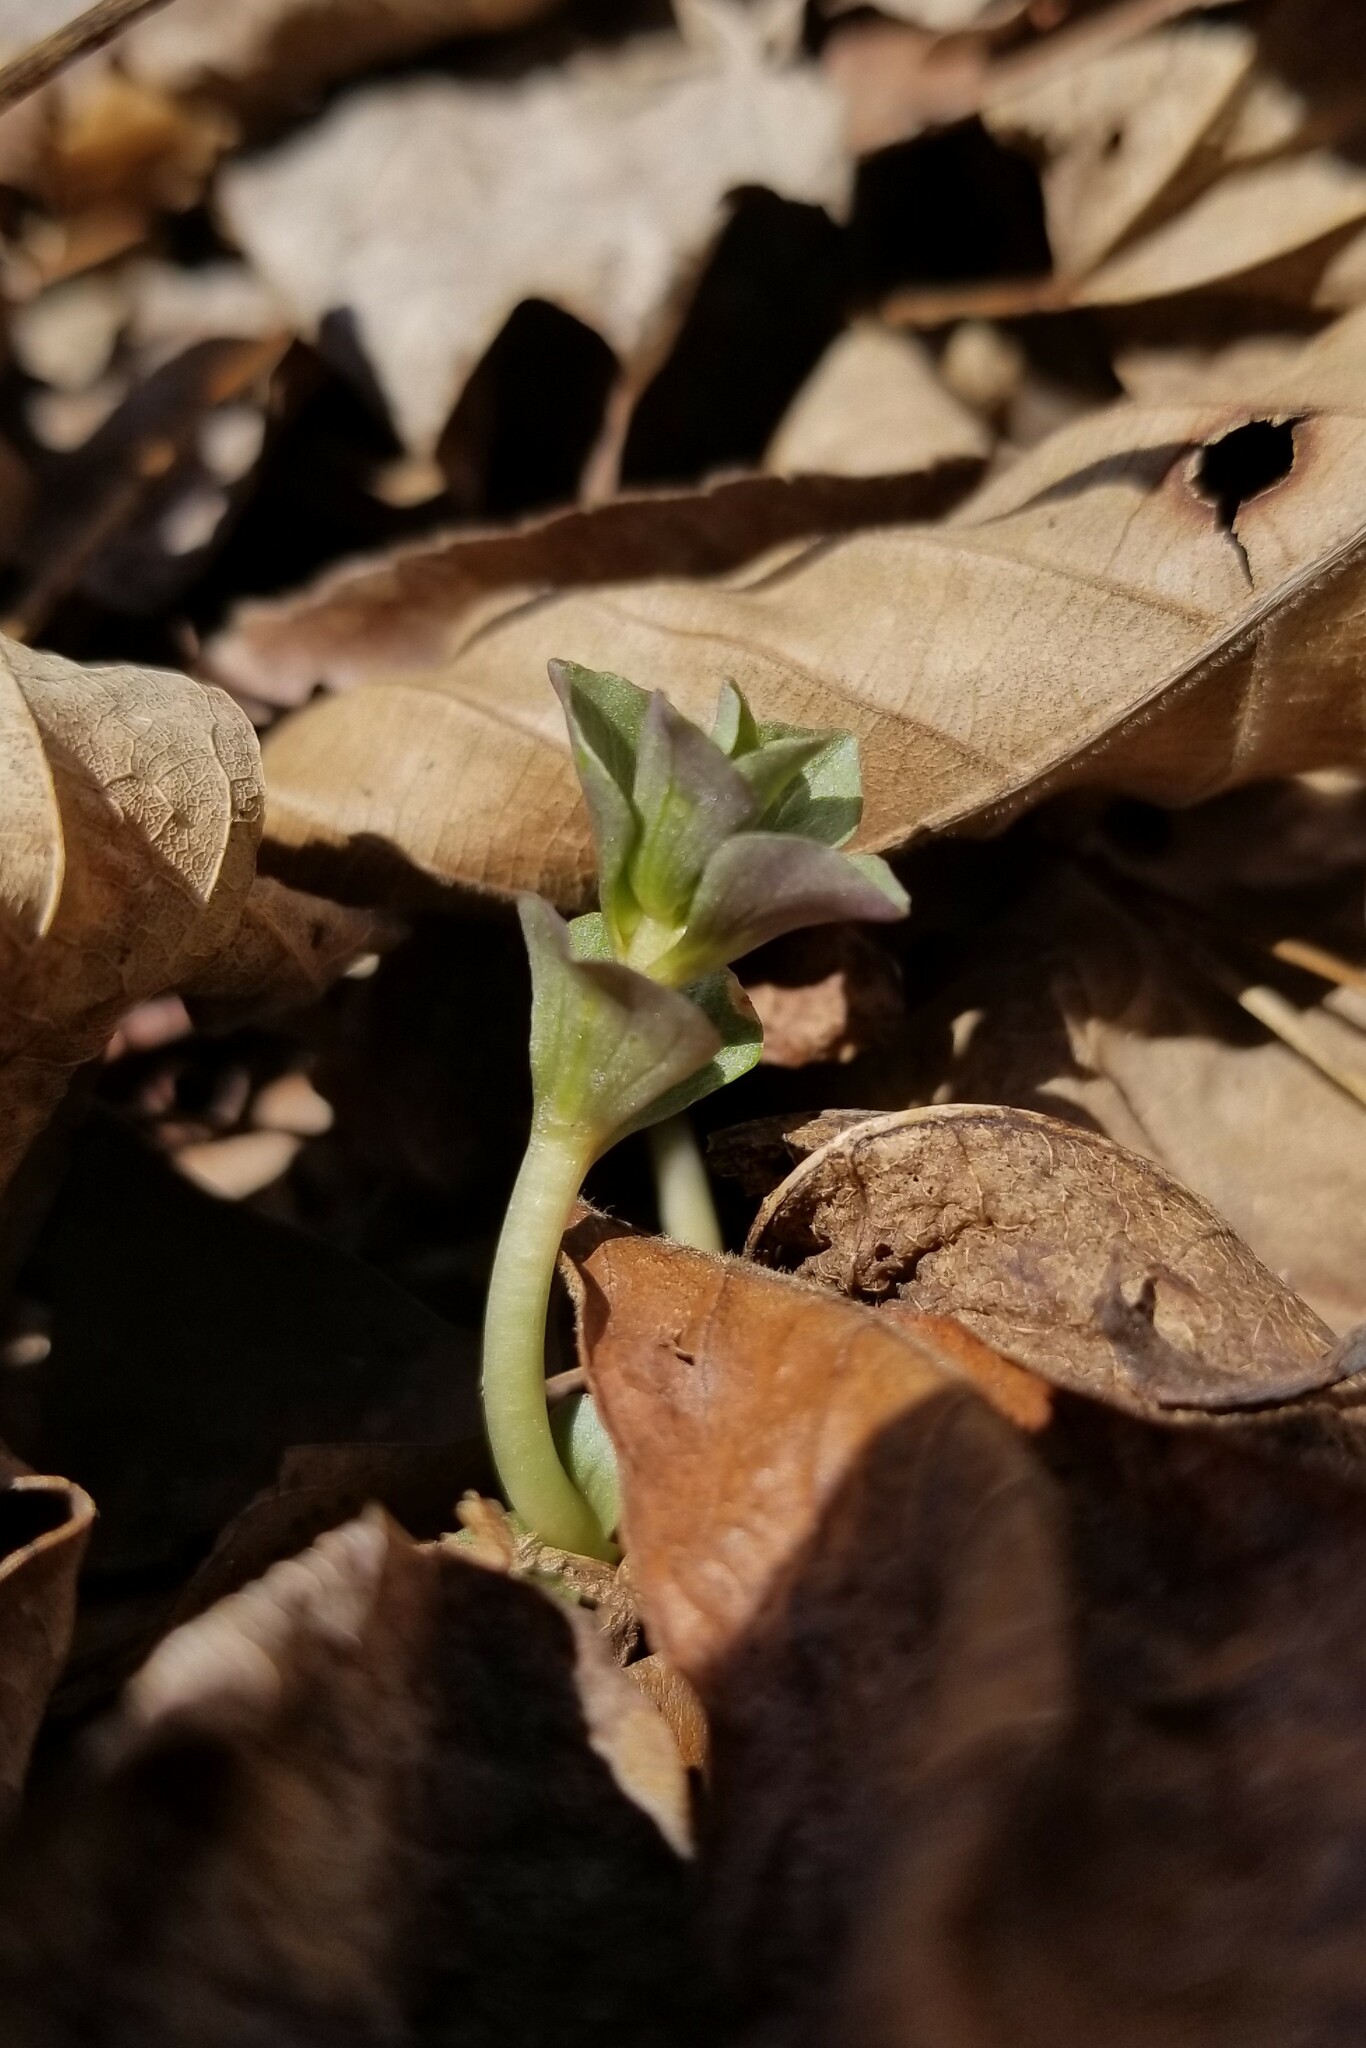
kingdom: Plantae
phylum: Tracheophyta
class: Magnoliopsida
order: Gentianales
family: Gentianaceae
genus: Obolaria
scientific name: Obolaria virginica
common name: Pennywort
